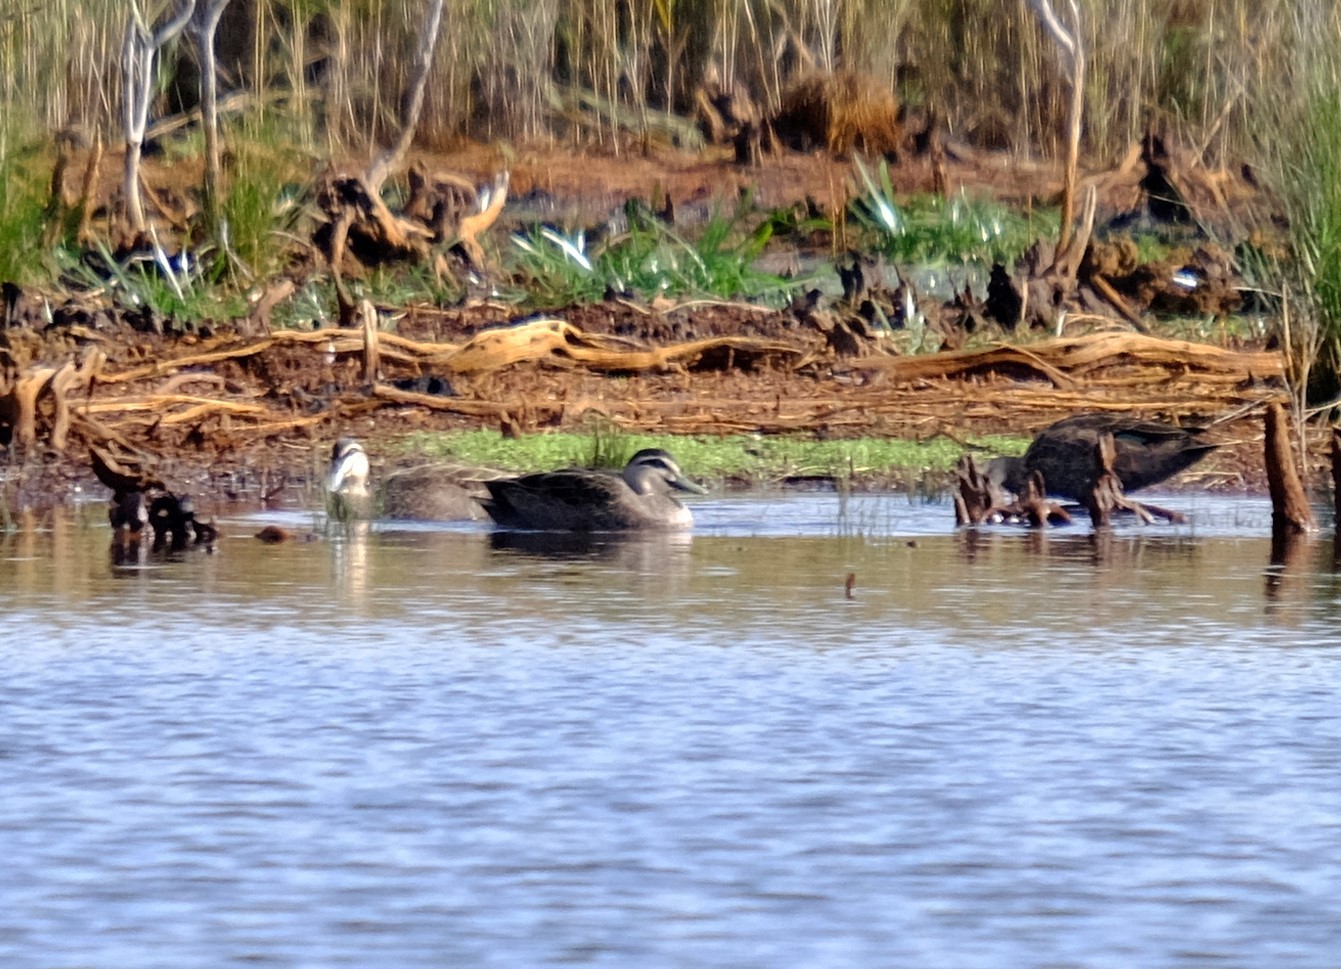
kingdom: Animalia
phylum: Chordata
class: Aves
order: Anseriformes
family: Anatidae
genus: Anas
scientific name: Anas superciliosa
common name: Pacific black duck
